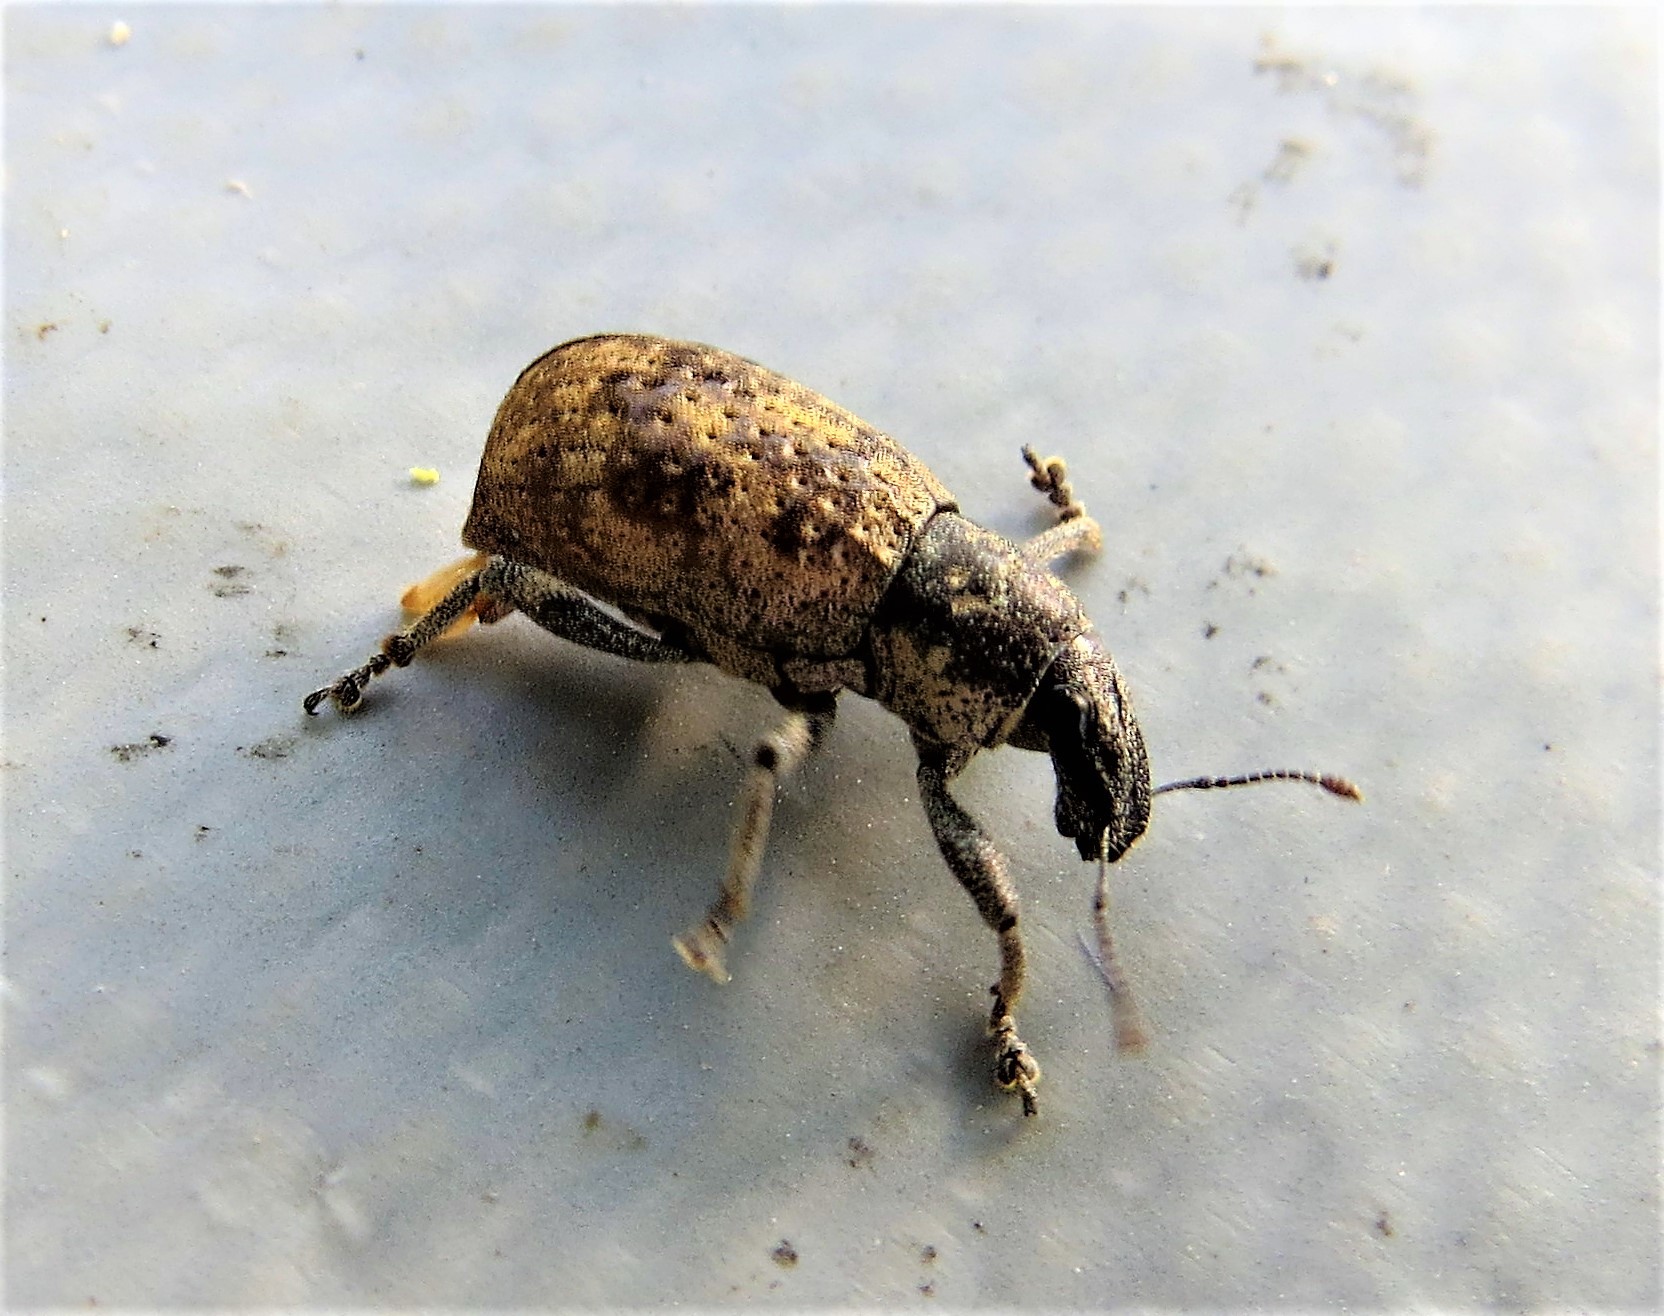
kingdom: Animalia
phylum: Arthropoda
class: Insecta
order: Coleoptera
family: Curculionidae
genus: Epicaerus
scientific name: Epicaerus mexicanus
